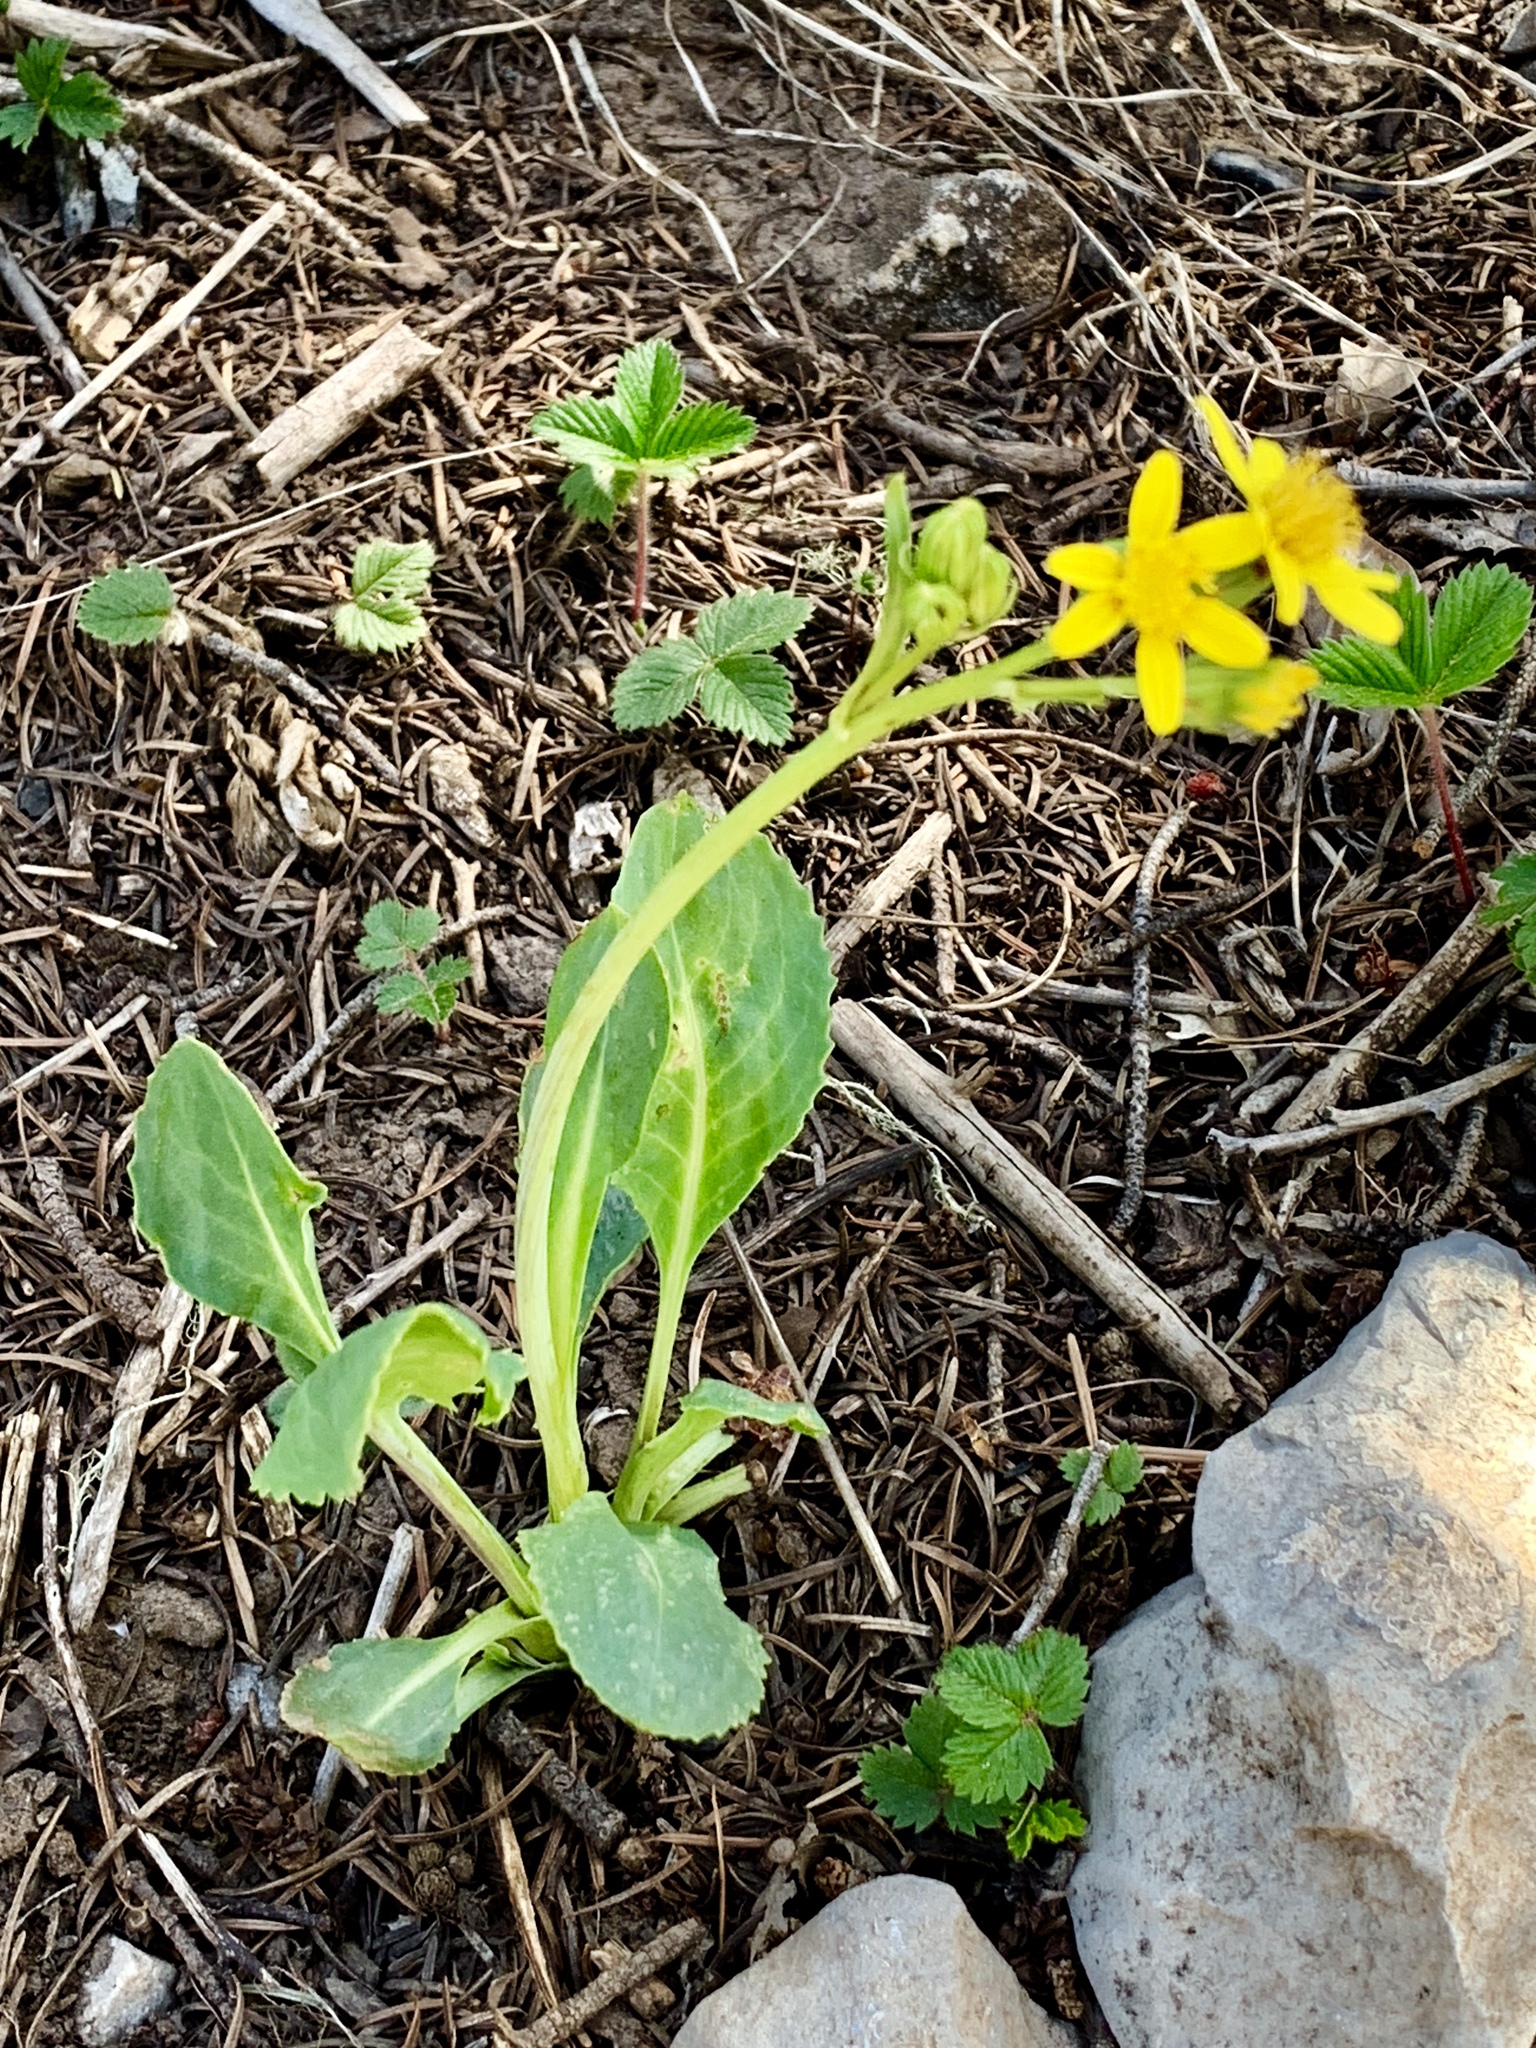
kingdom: Plantae
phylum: Tracheophyta
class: Magnoliopsida
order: Asterales
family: Asteraceae
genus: Senecio
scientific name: Senecio wootonii
